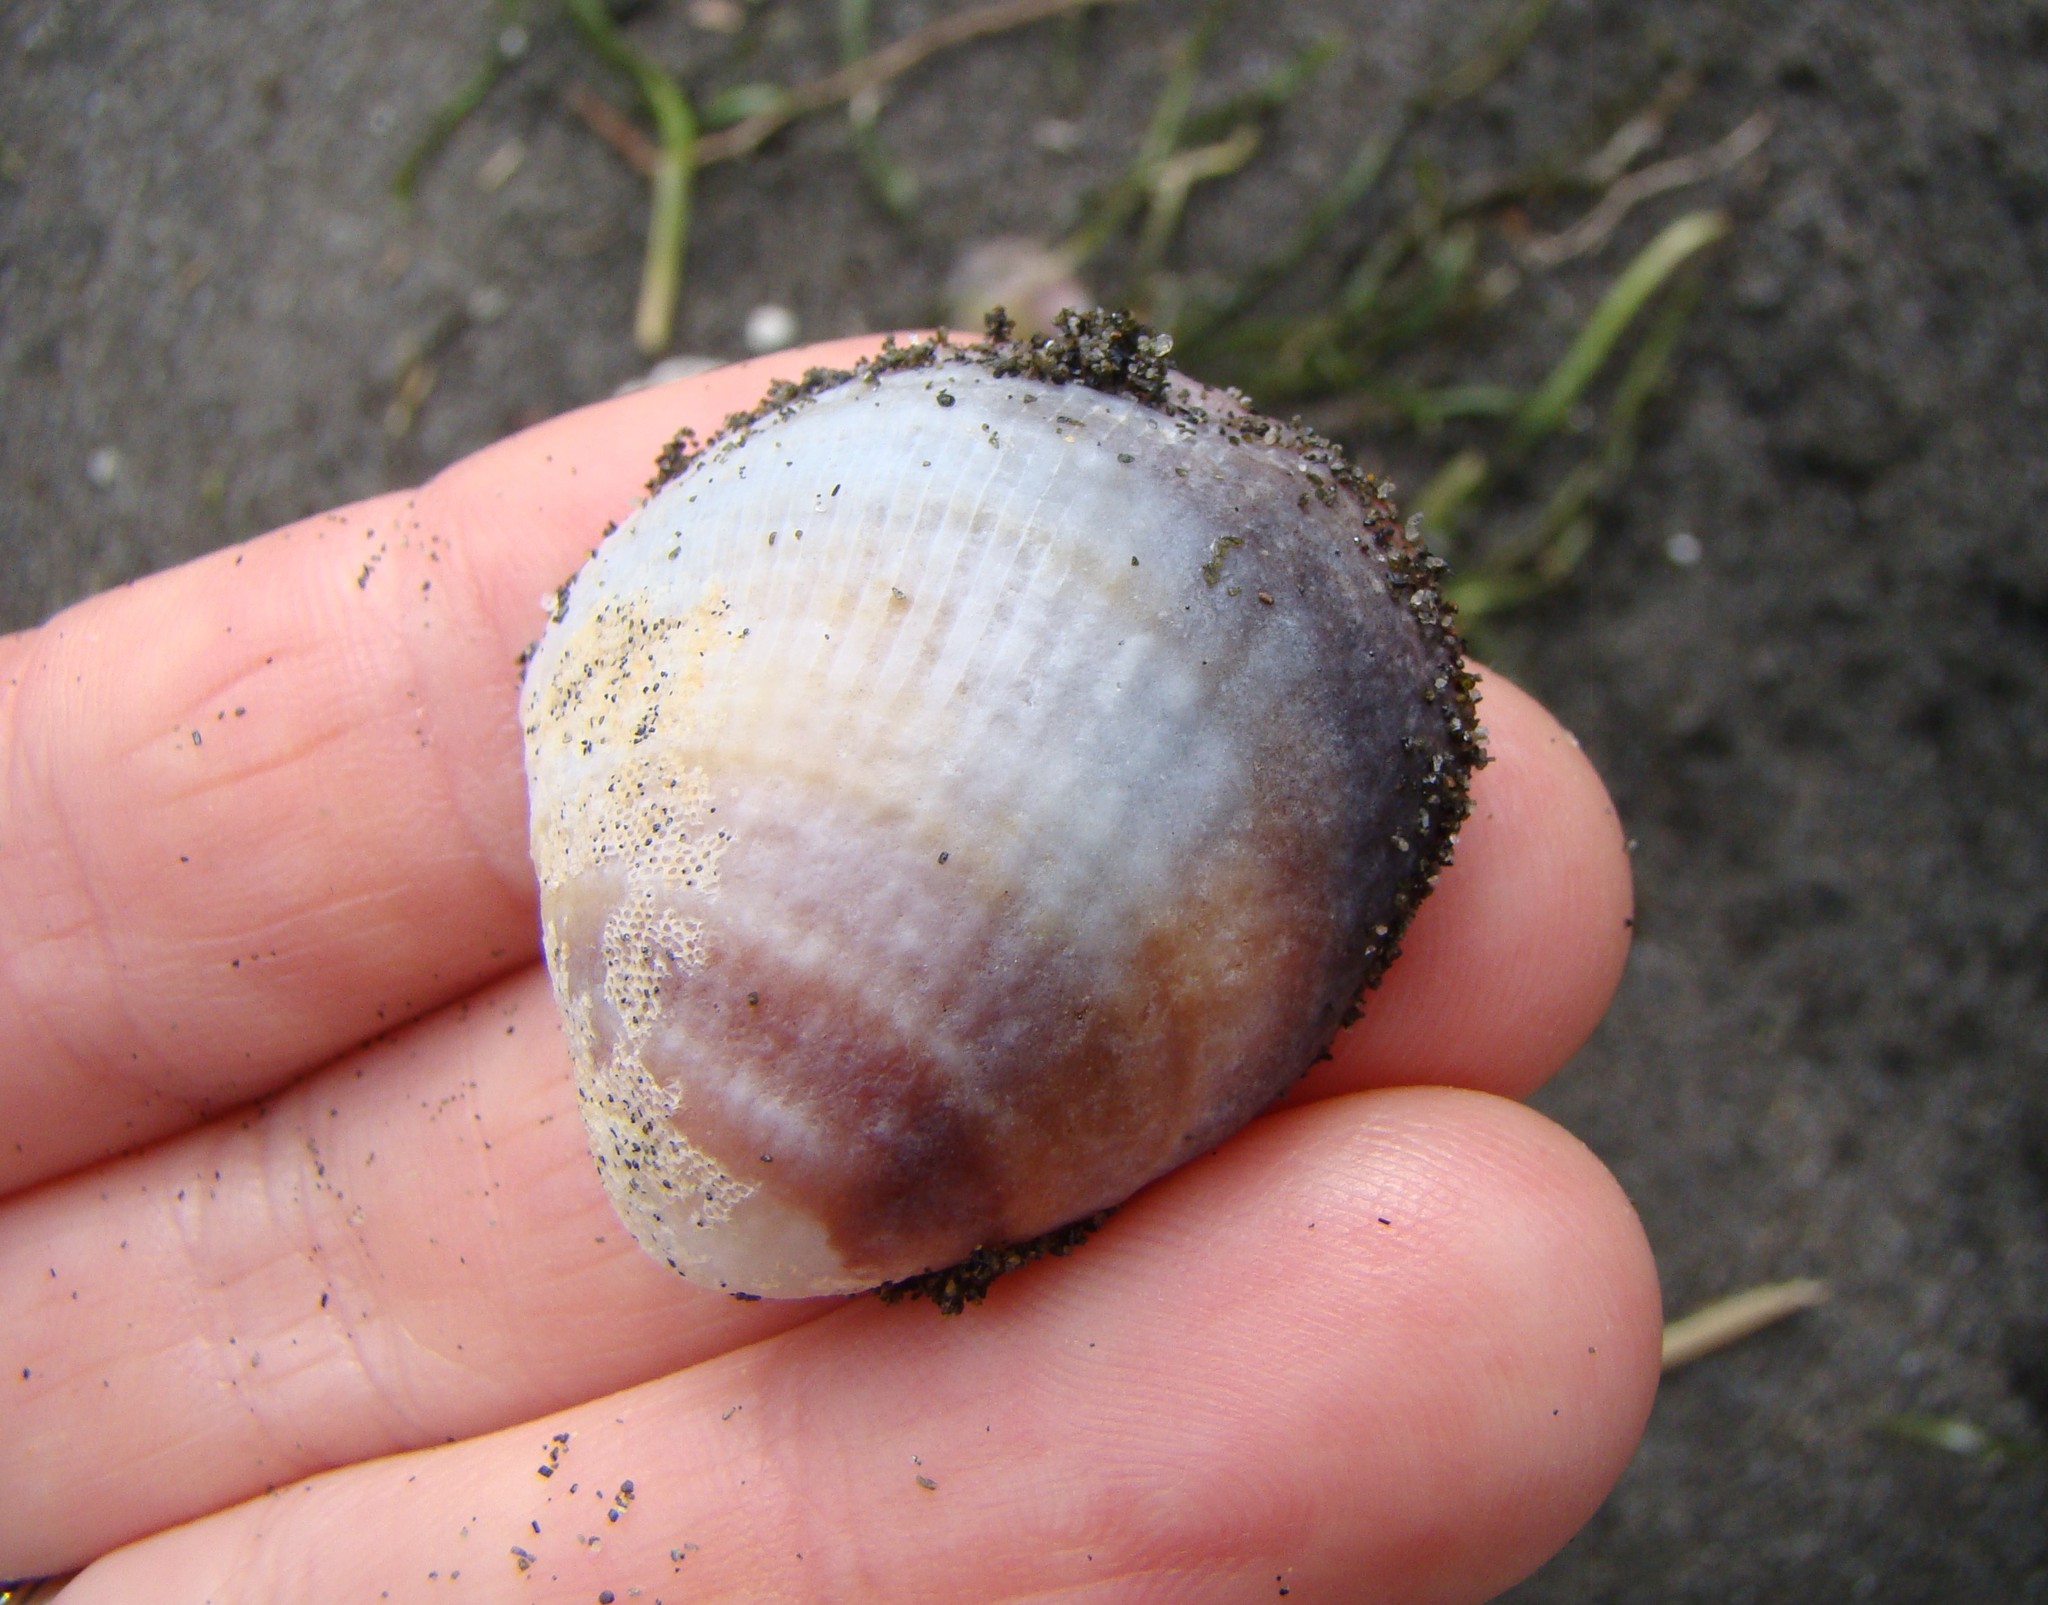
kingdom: Animalia
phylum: Mollusca
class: Bivalvia
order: Venerida
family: Veneridae
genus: Austrovenus
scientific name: Austrovenus stutchburyi
